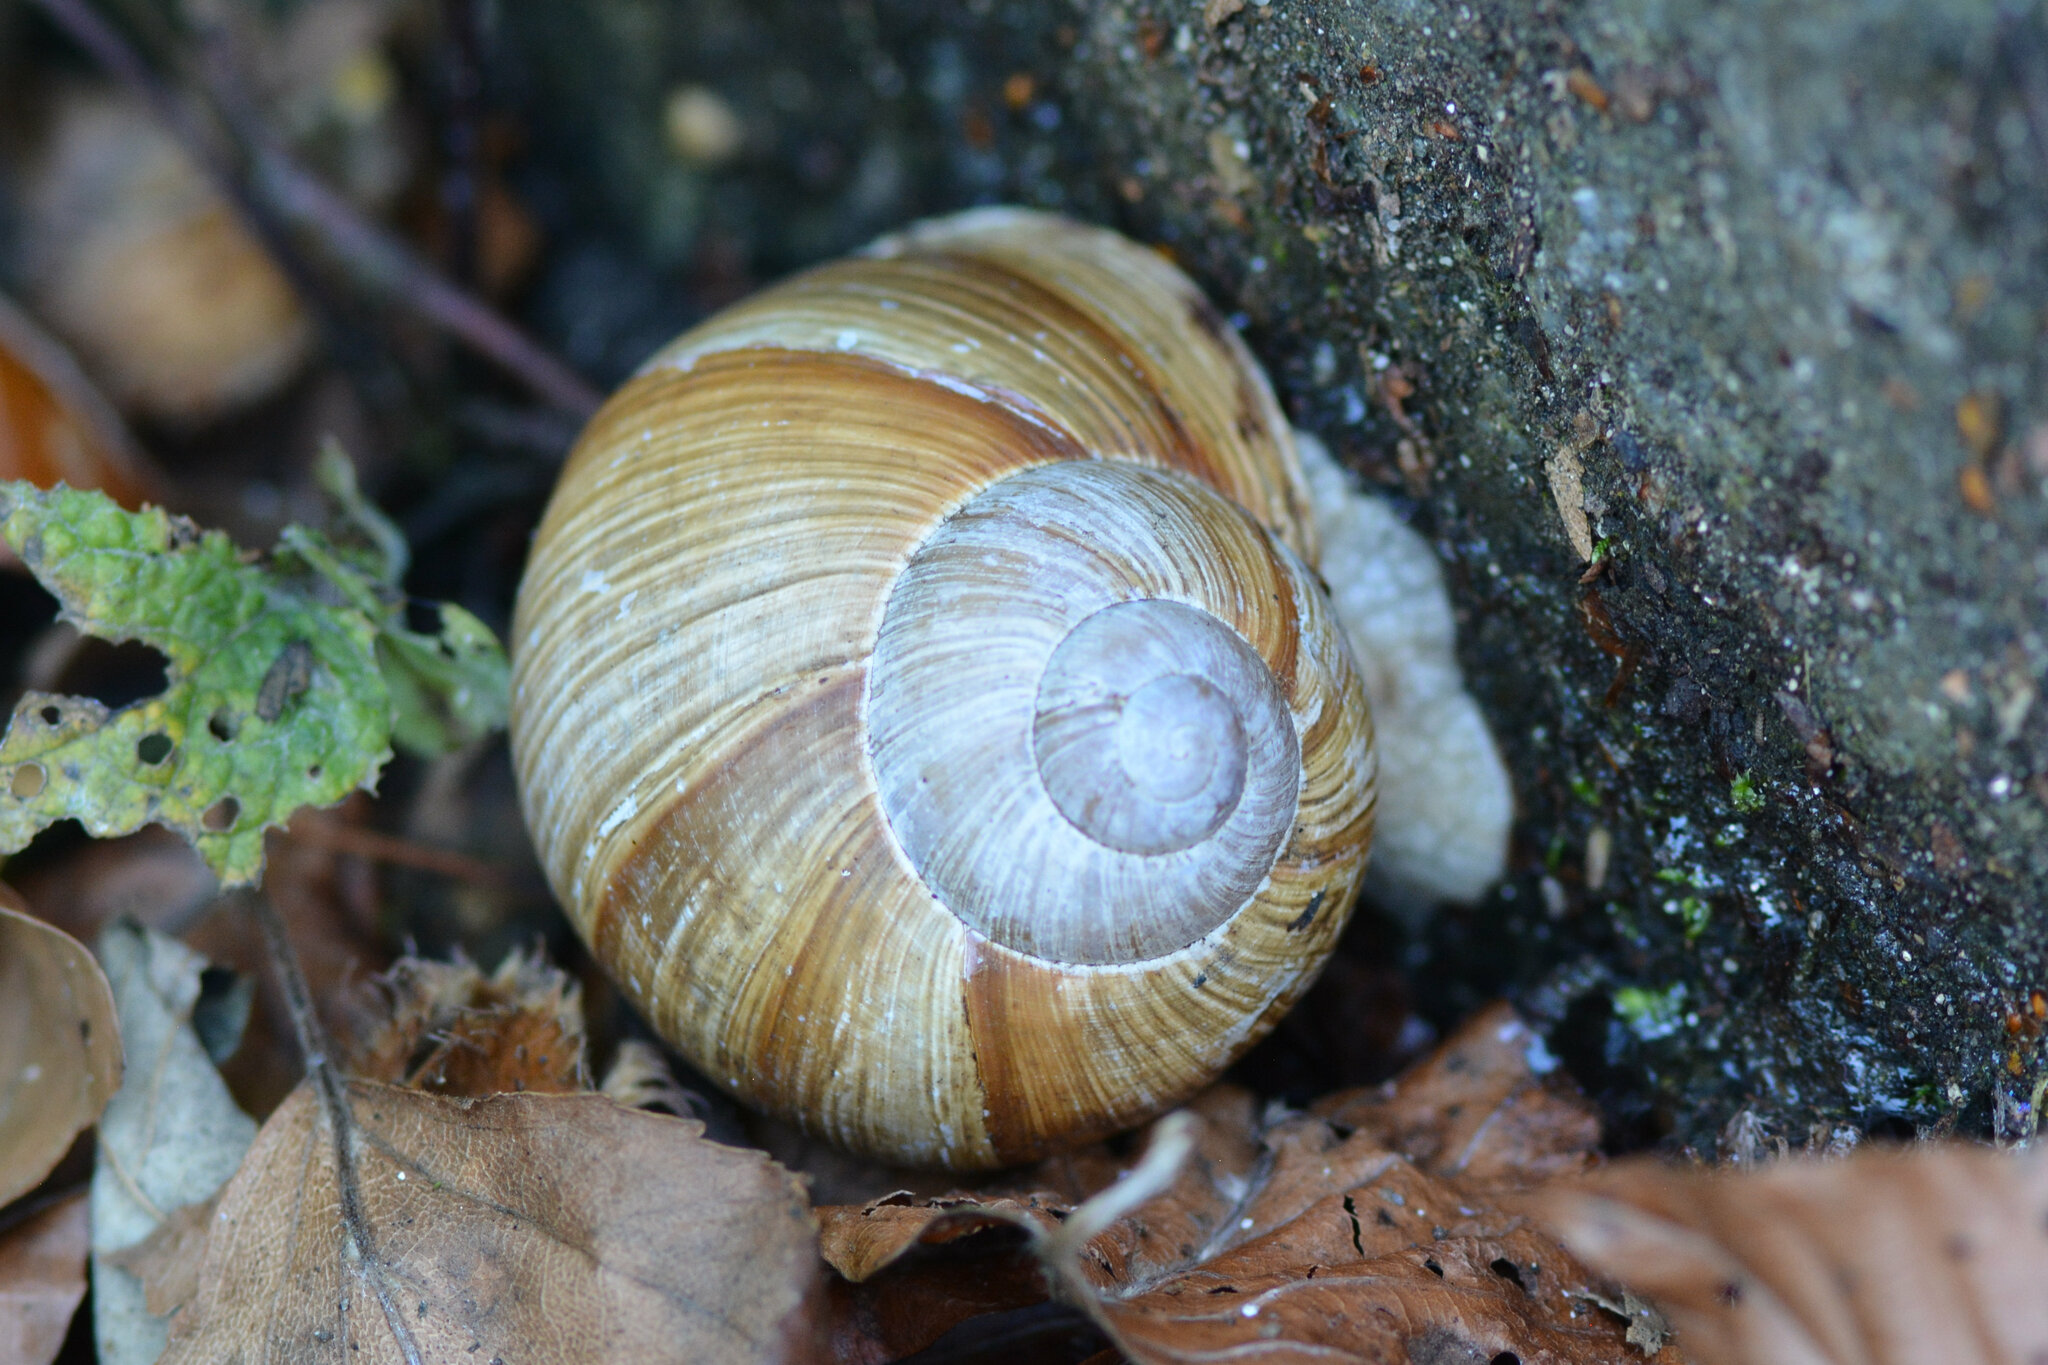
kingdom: Animalia
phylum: Mollusca
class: Gastropoda
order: Stylommatophora
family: Helicidae
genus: Helix
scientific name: Helix pomatia
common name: Roman snail
